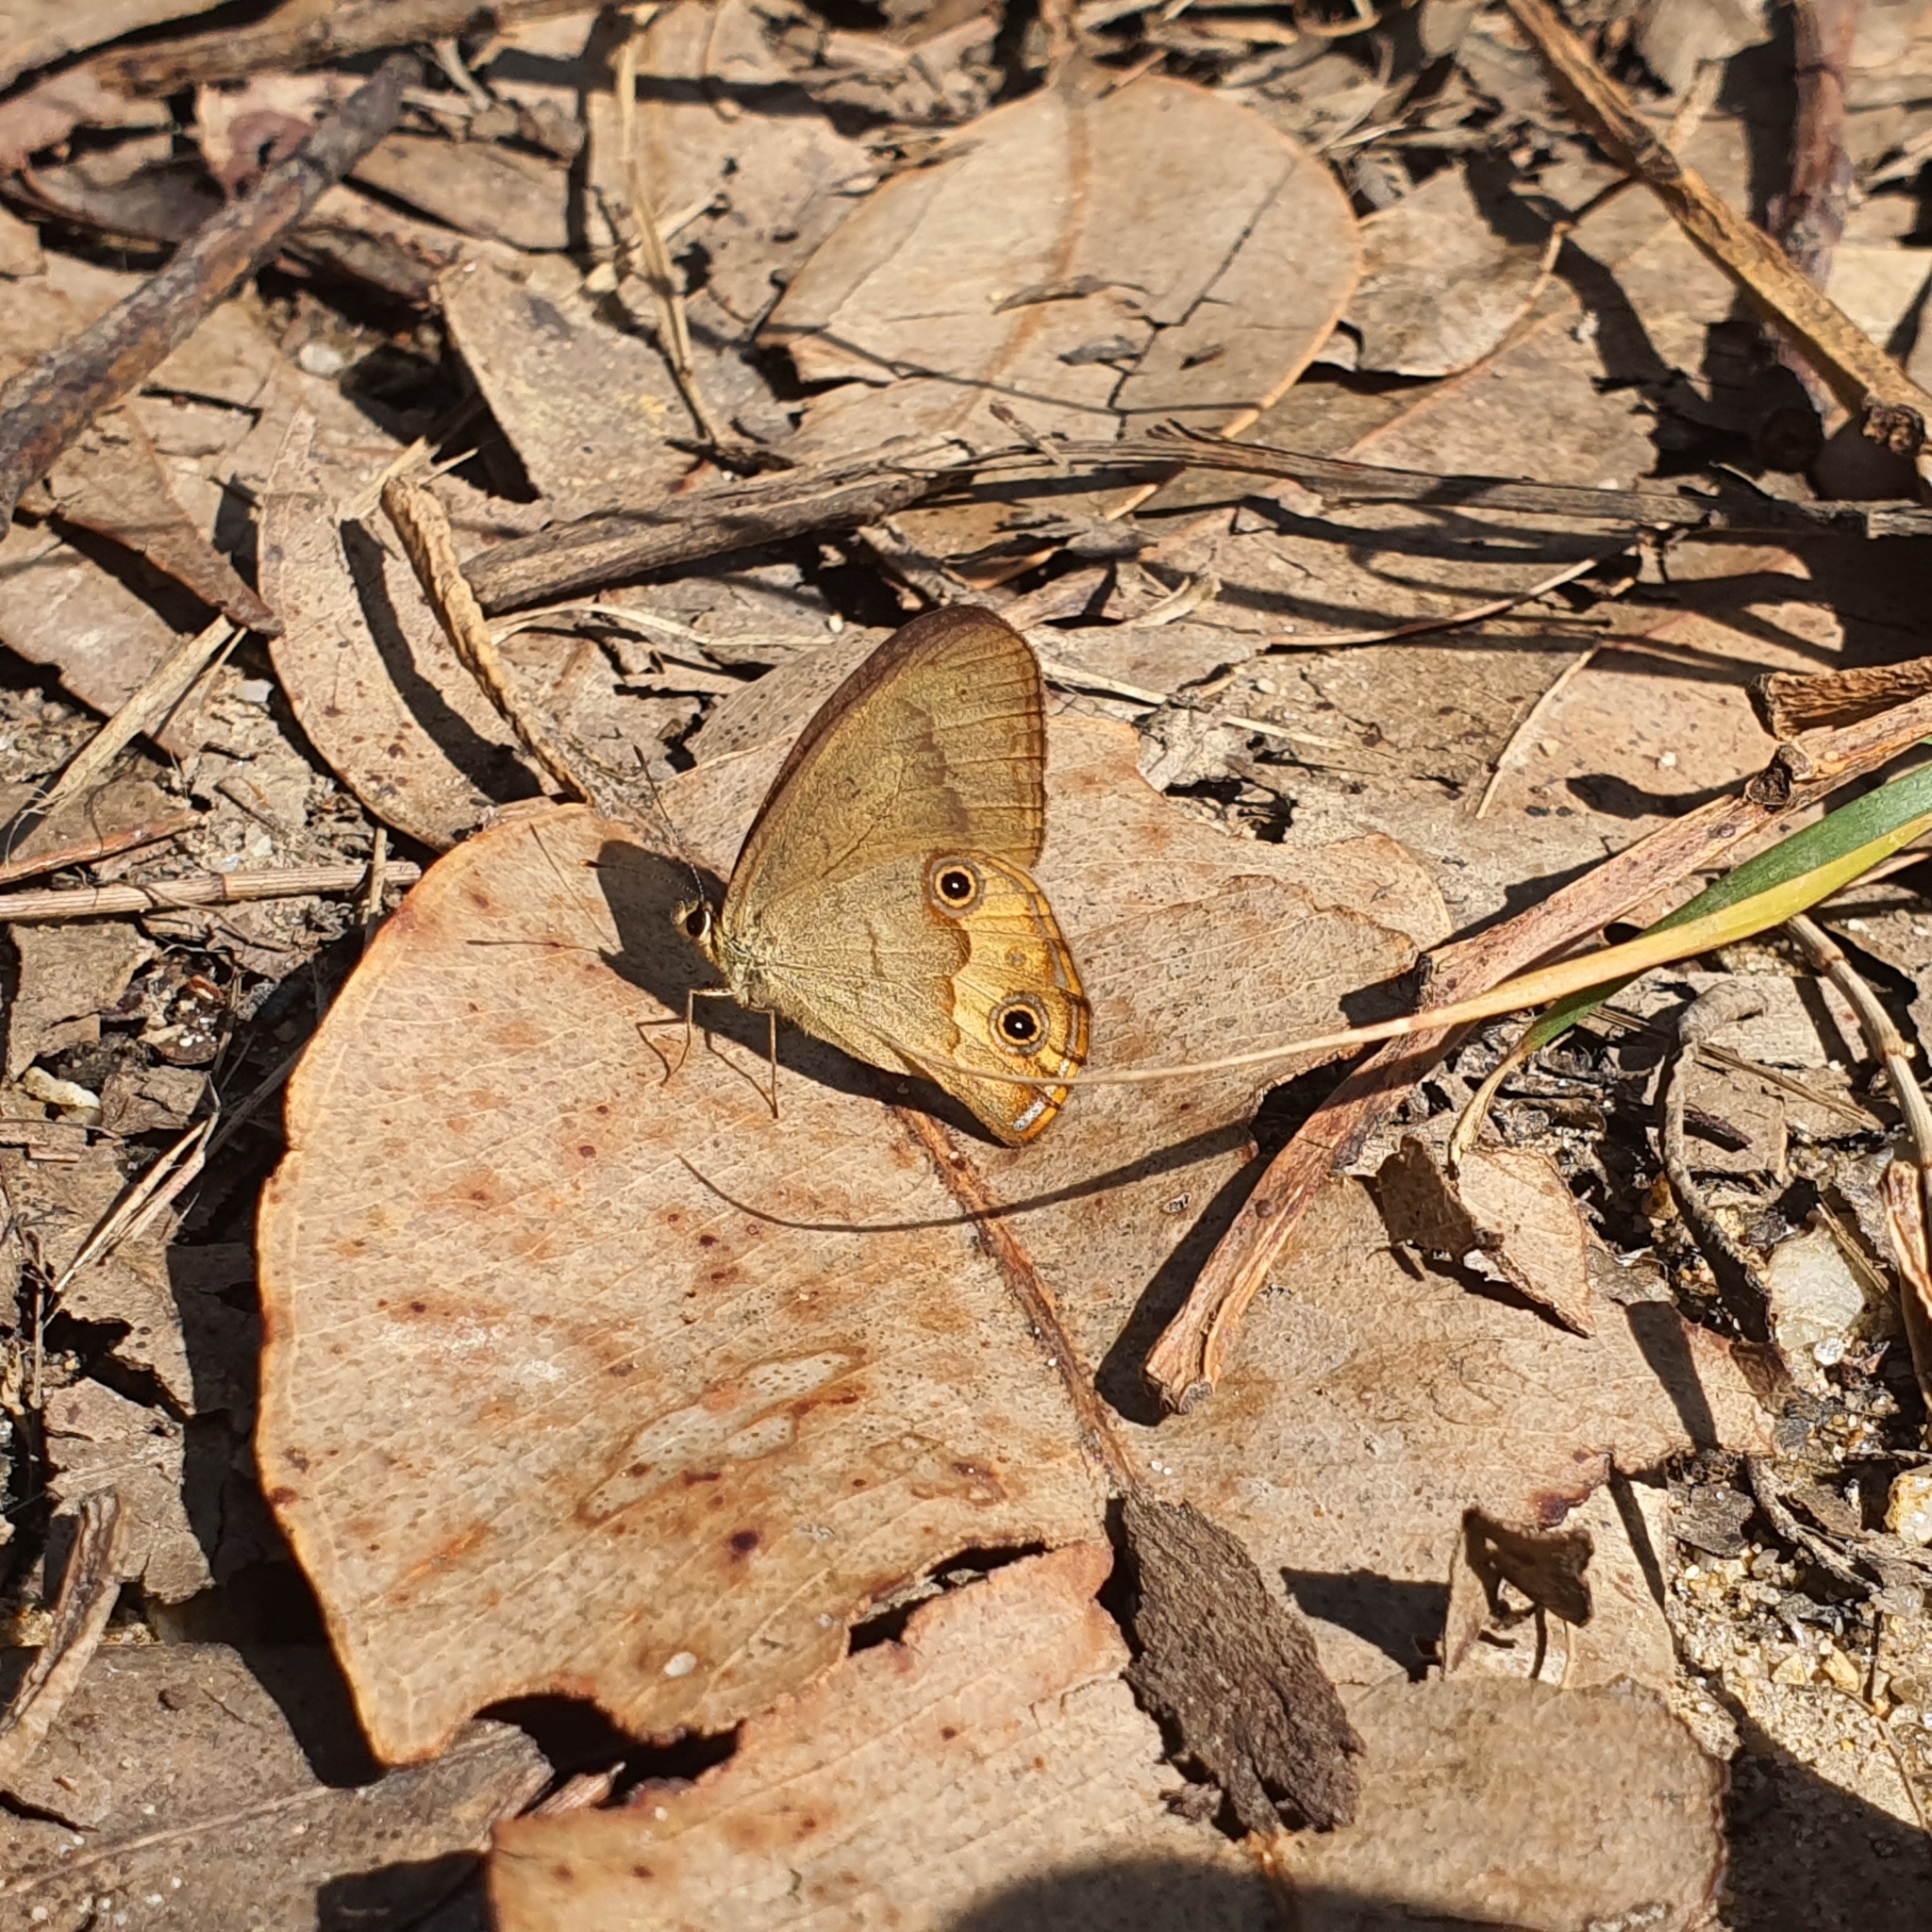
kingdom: Animalia
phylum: Arthropoda
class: Insecta
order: Lepidoptera
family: Nymphalidae
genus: Hypocysta
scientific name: Hypocysta metirius
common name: Brown ringlet
